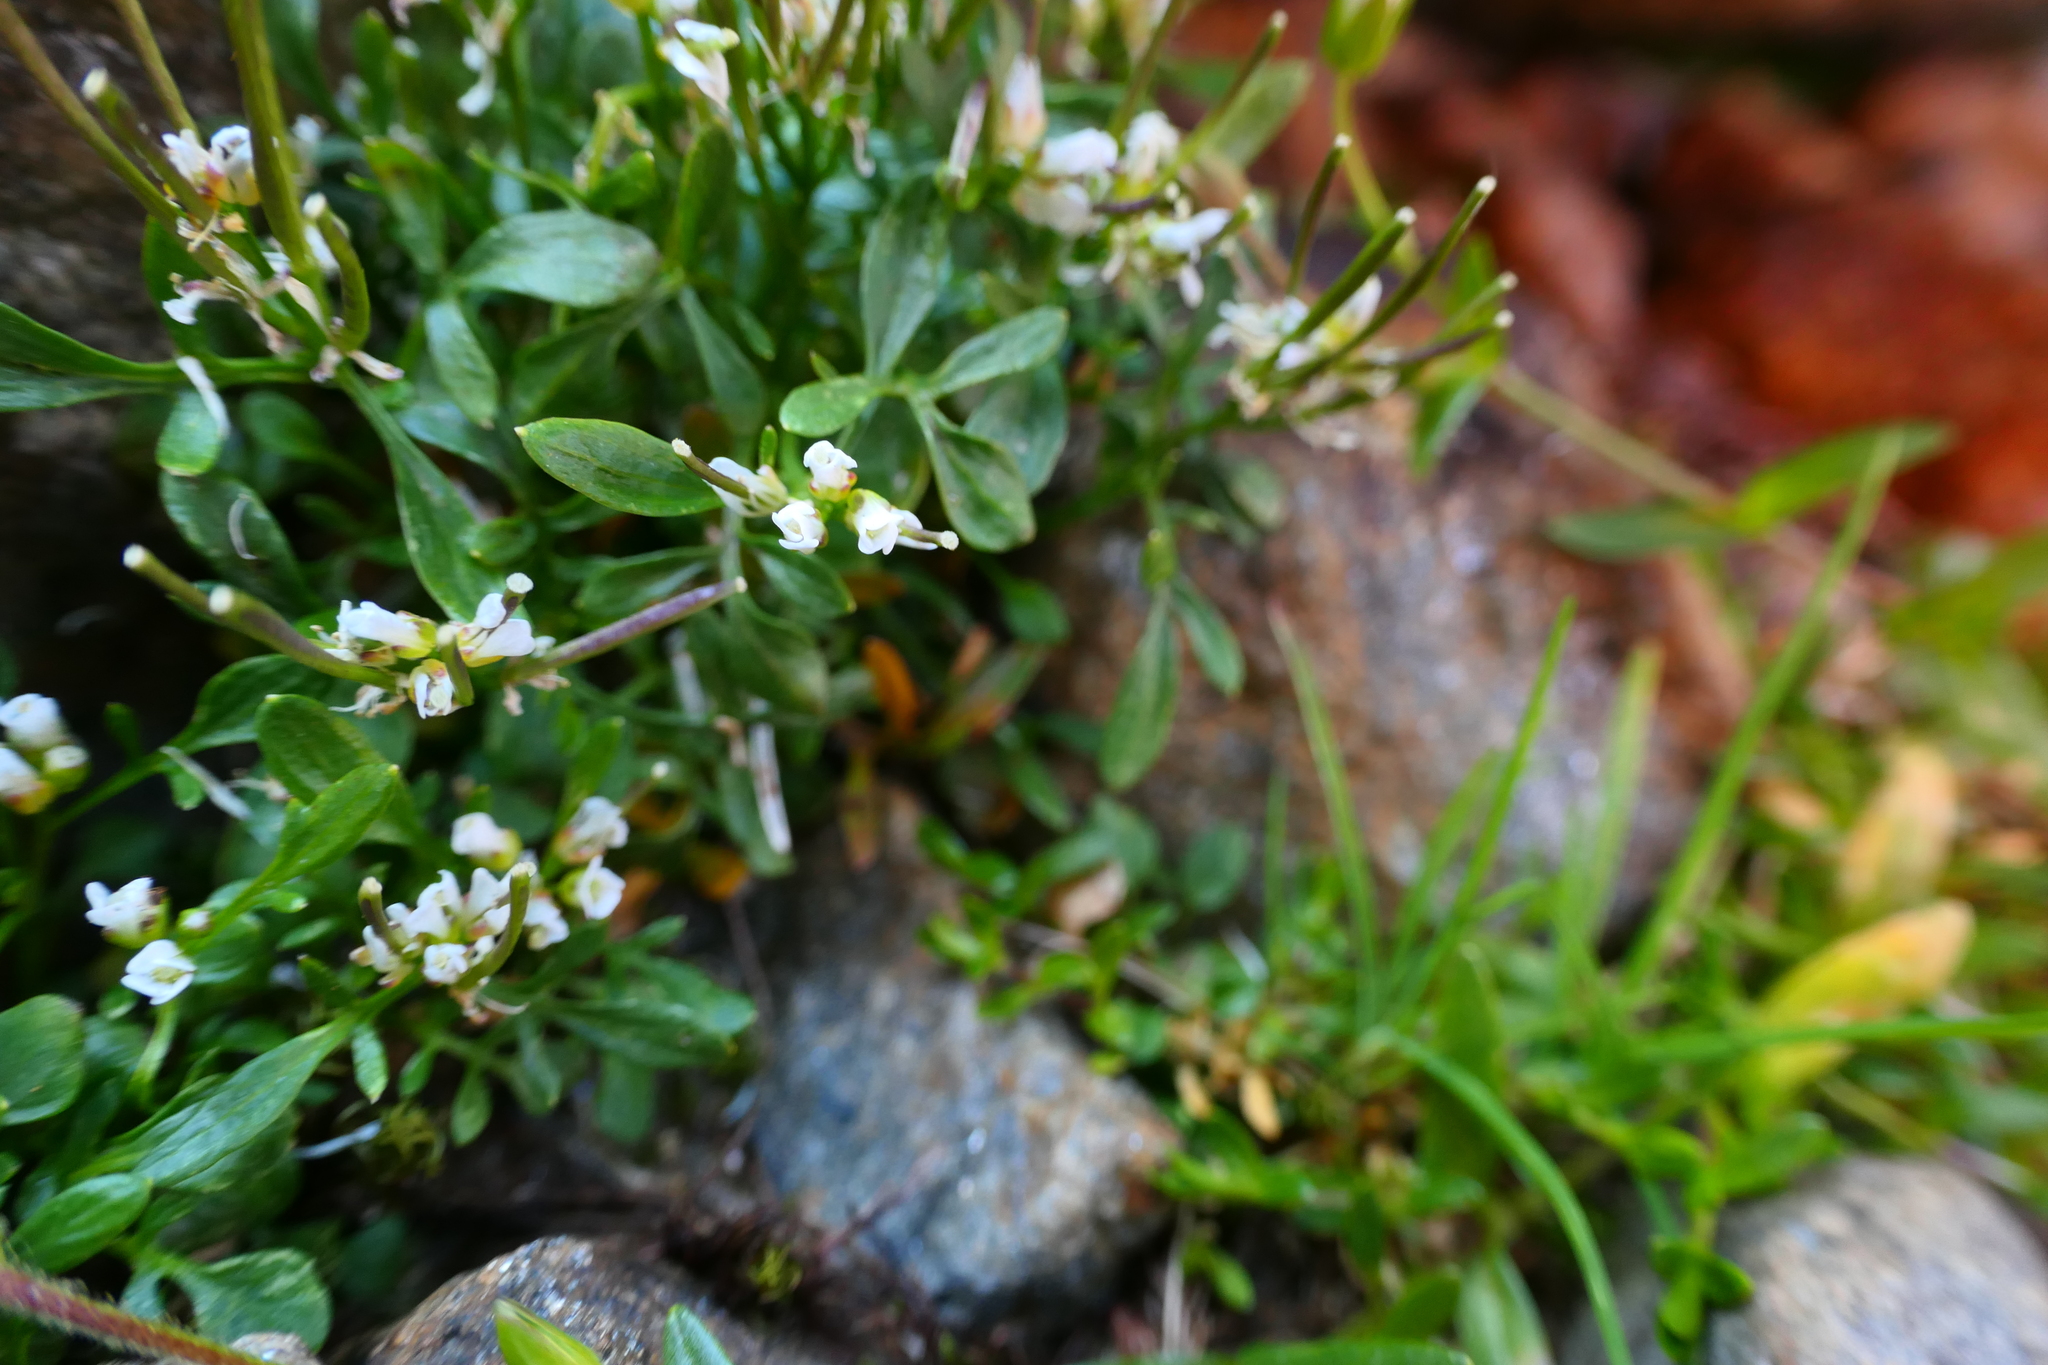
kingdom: Plantae
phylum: Tracheophyta
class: Magnoliopsida
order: Brassicales
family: Brassicaceae
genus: Cardamine
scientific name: Cardamine resedifolia
